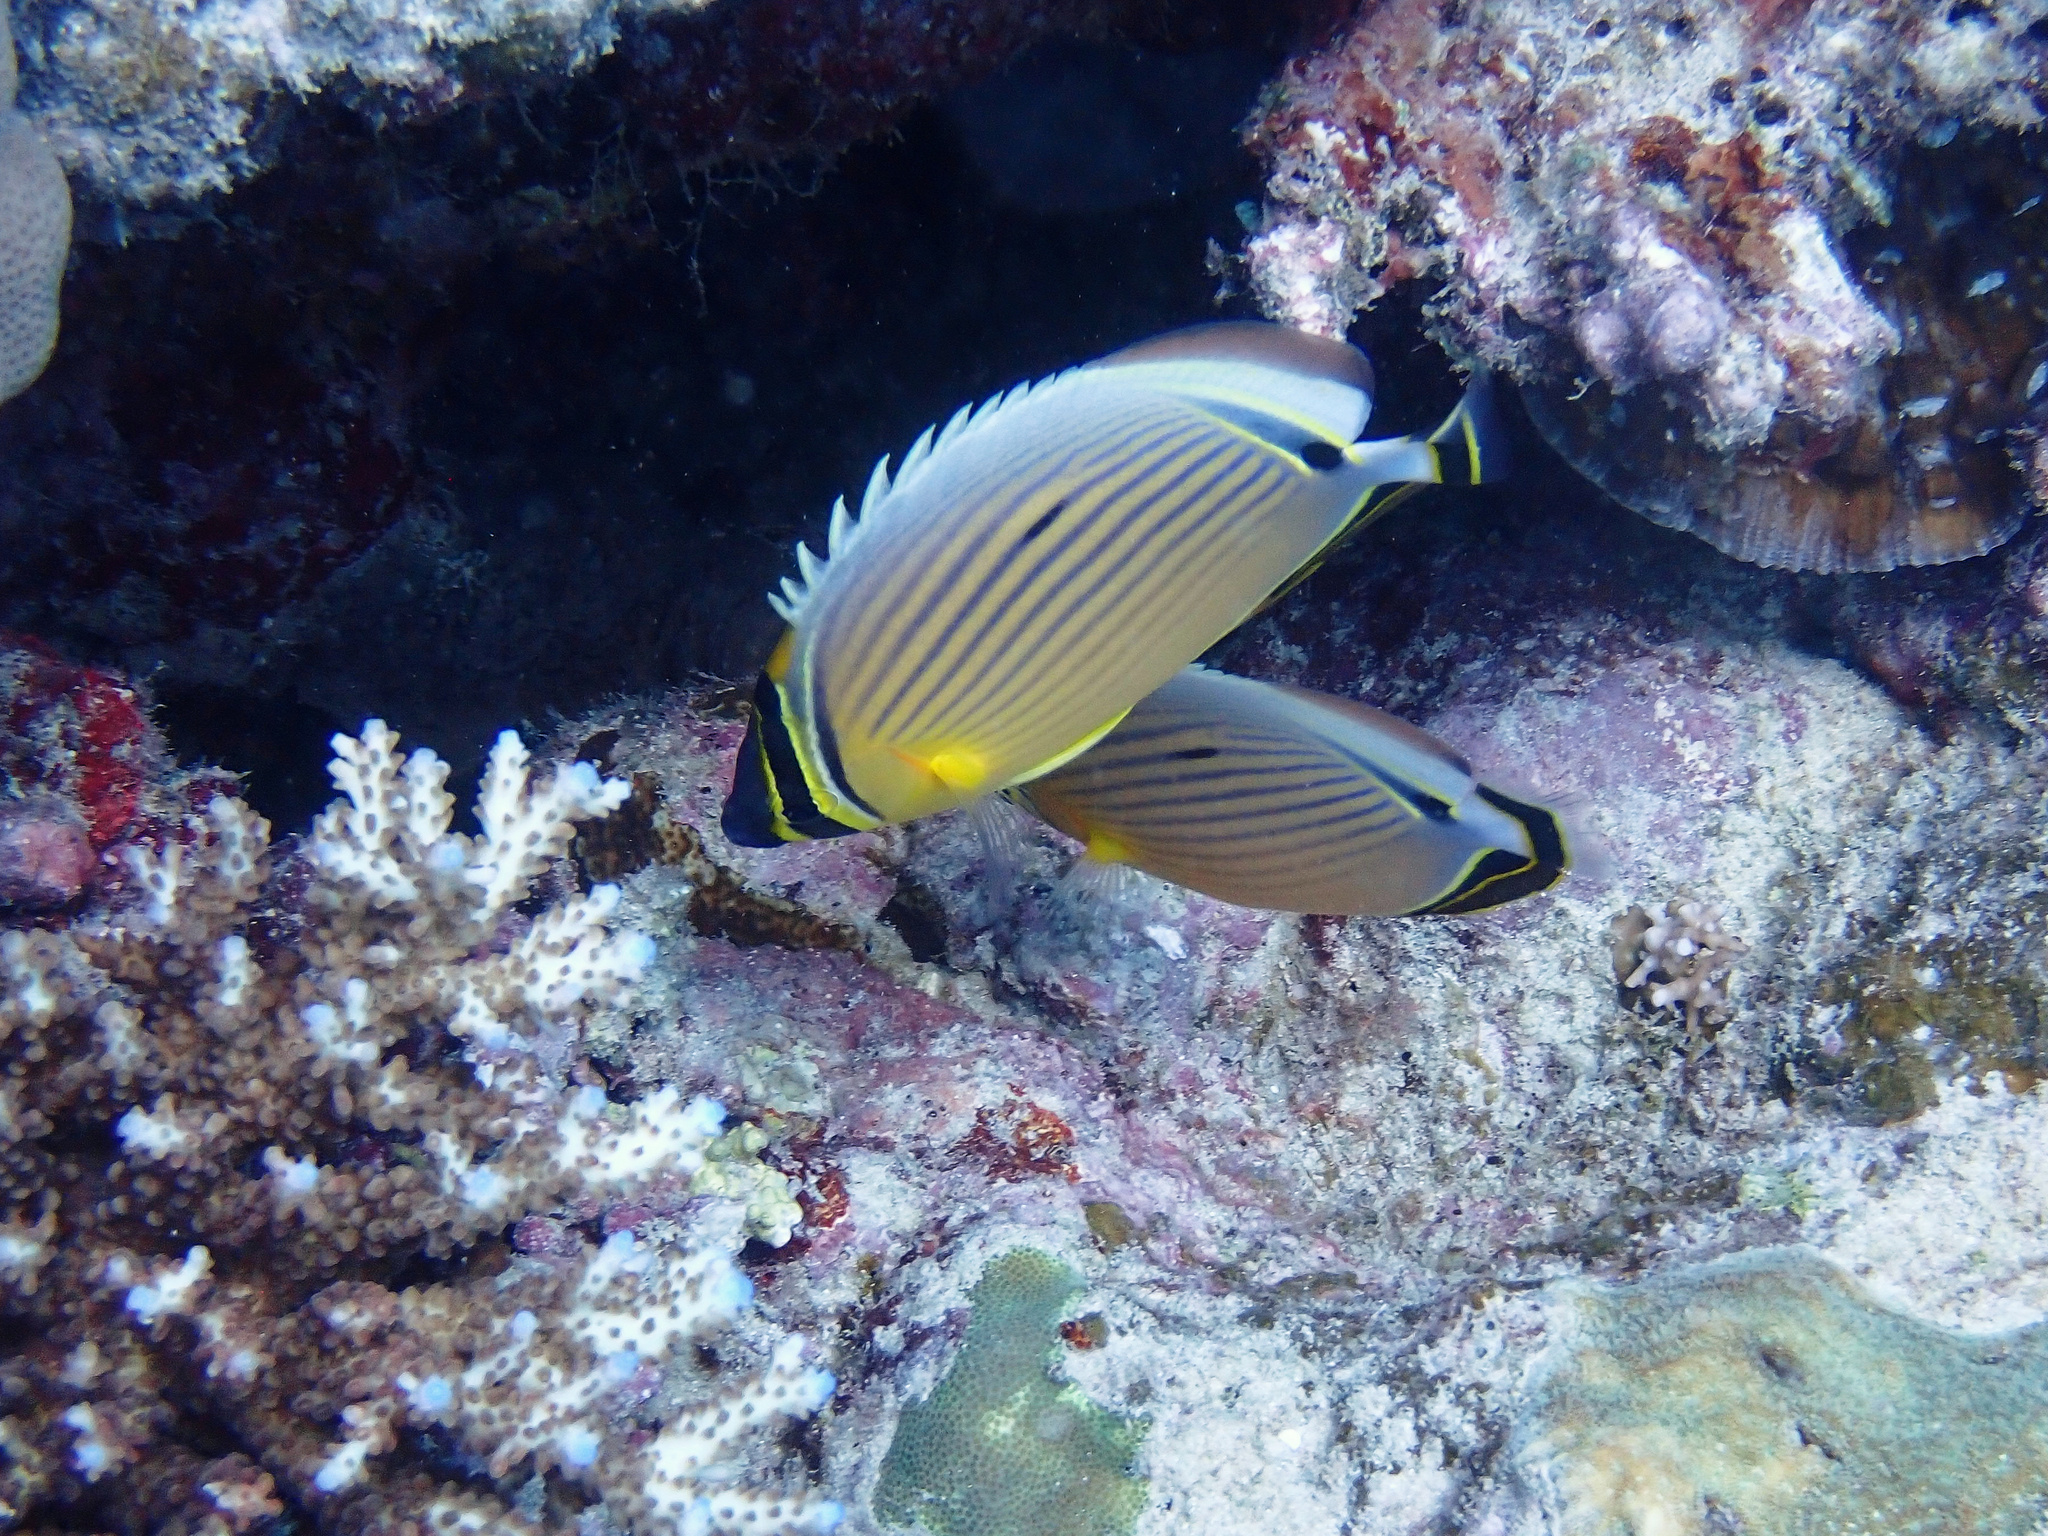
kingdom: Animalia
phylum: Chordata
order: Perciformes
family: Chaetodontidae
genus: Chaetodon
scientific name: Chaetodon lunulatus
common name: Redfin butterflyfish
